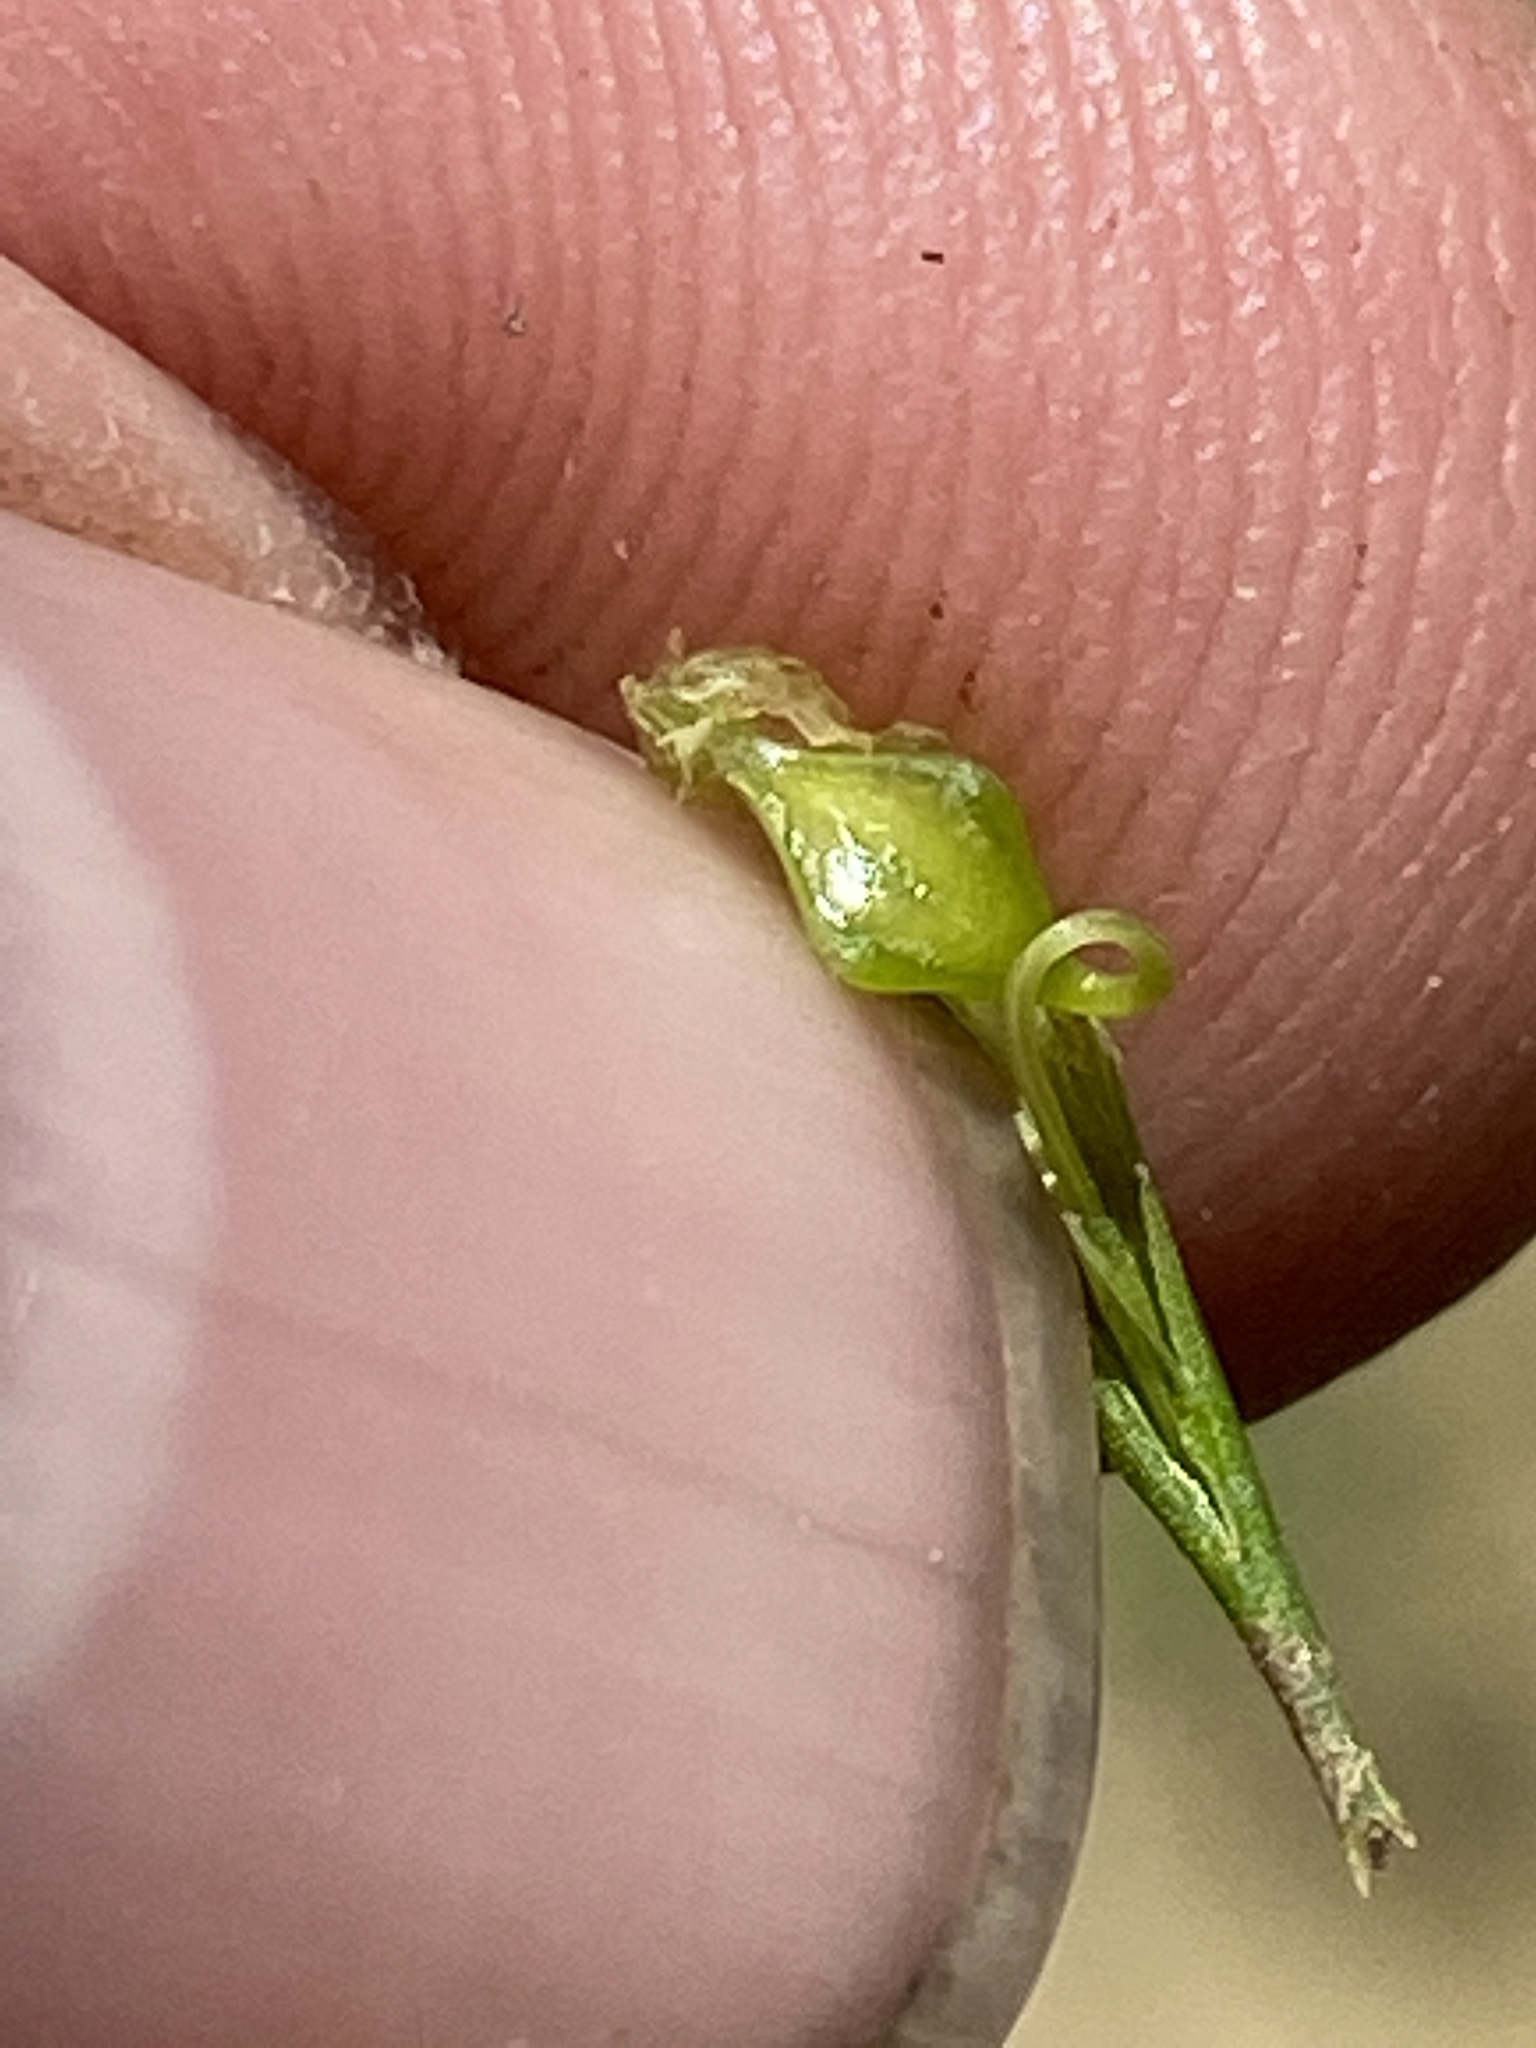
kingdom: Plantae
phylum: Tracheophyta
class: Liliopsida
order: Poales
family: Cyperaceae
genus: Carex
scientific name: Carex lupuliformis
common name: False hop sedge
